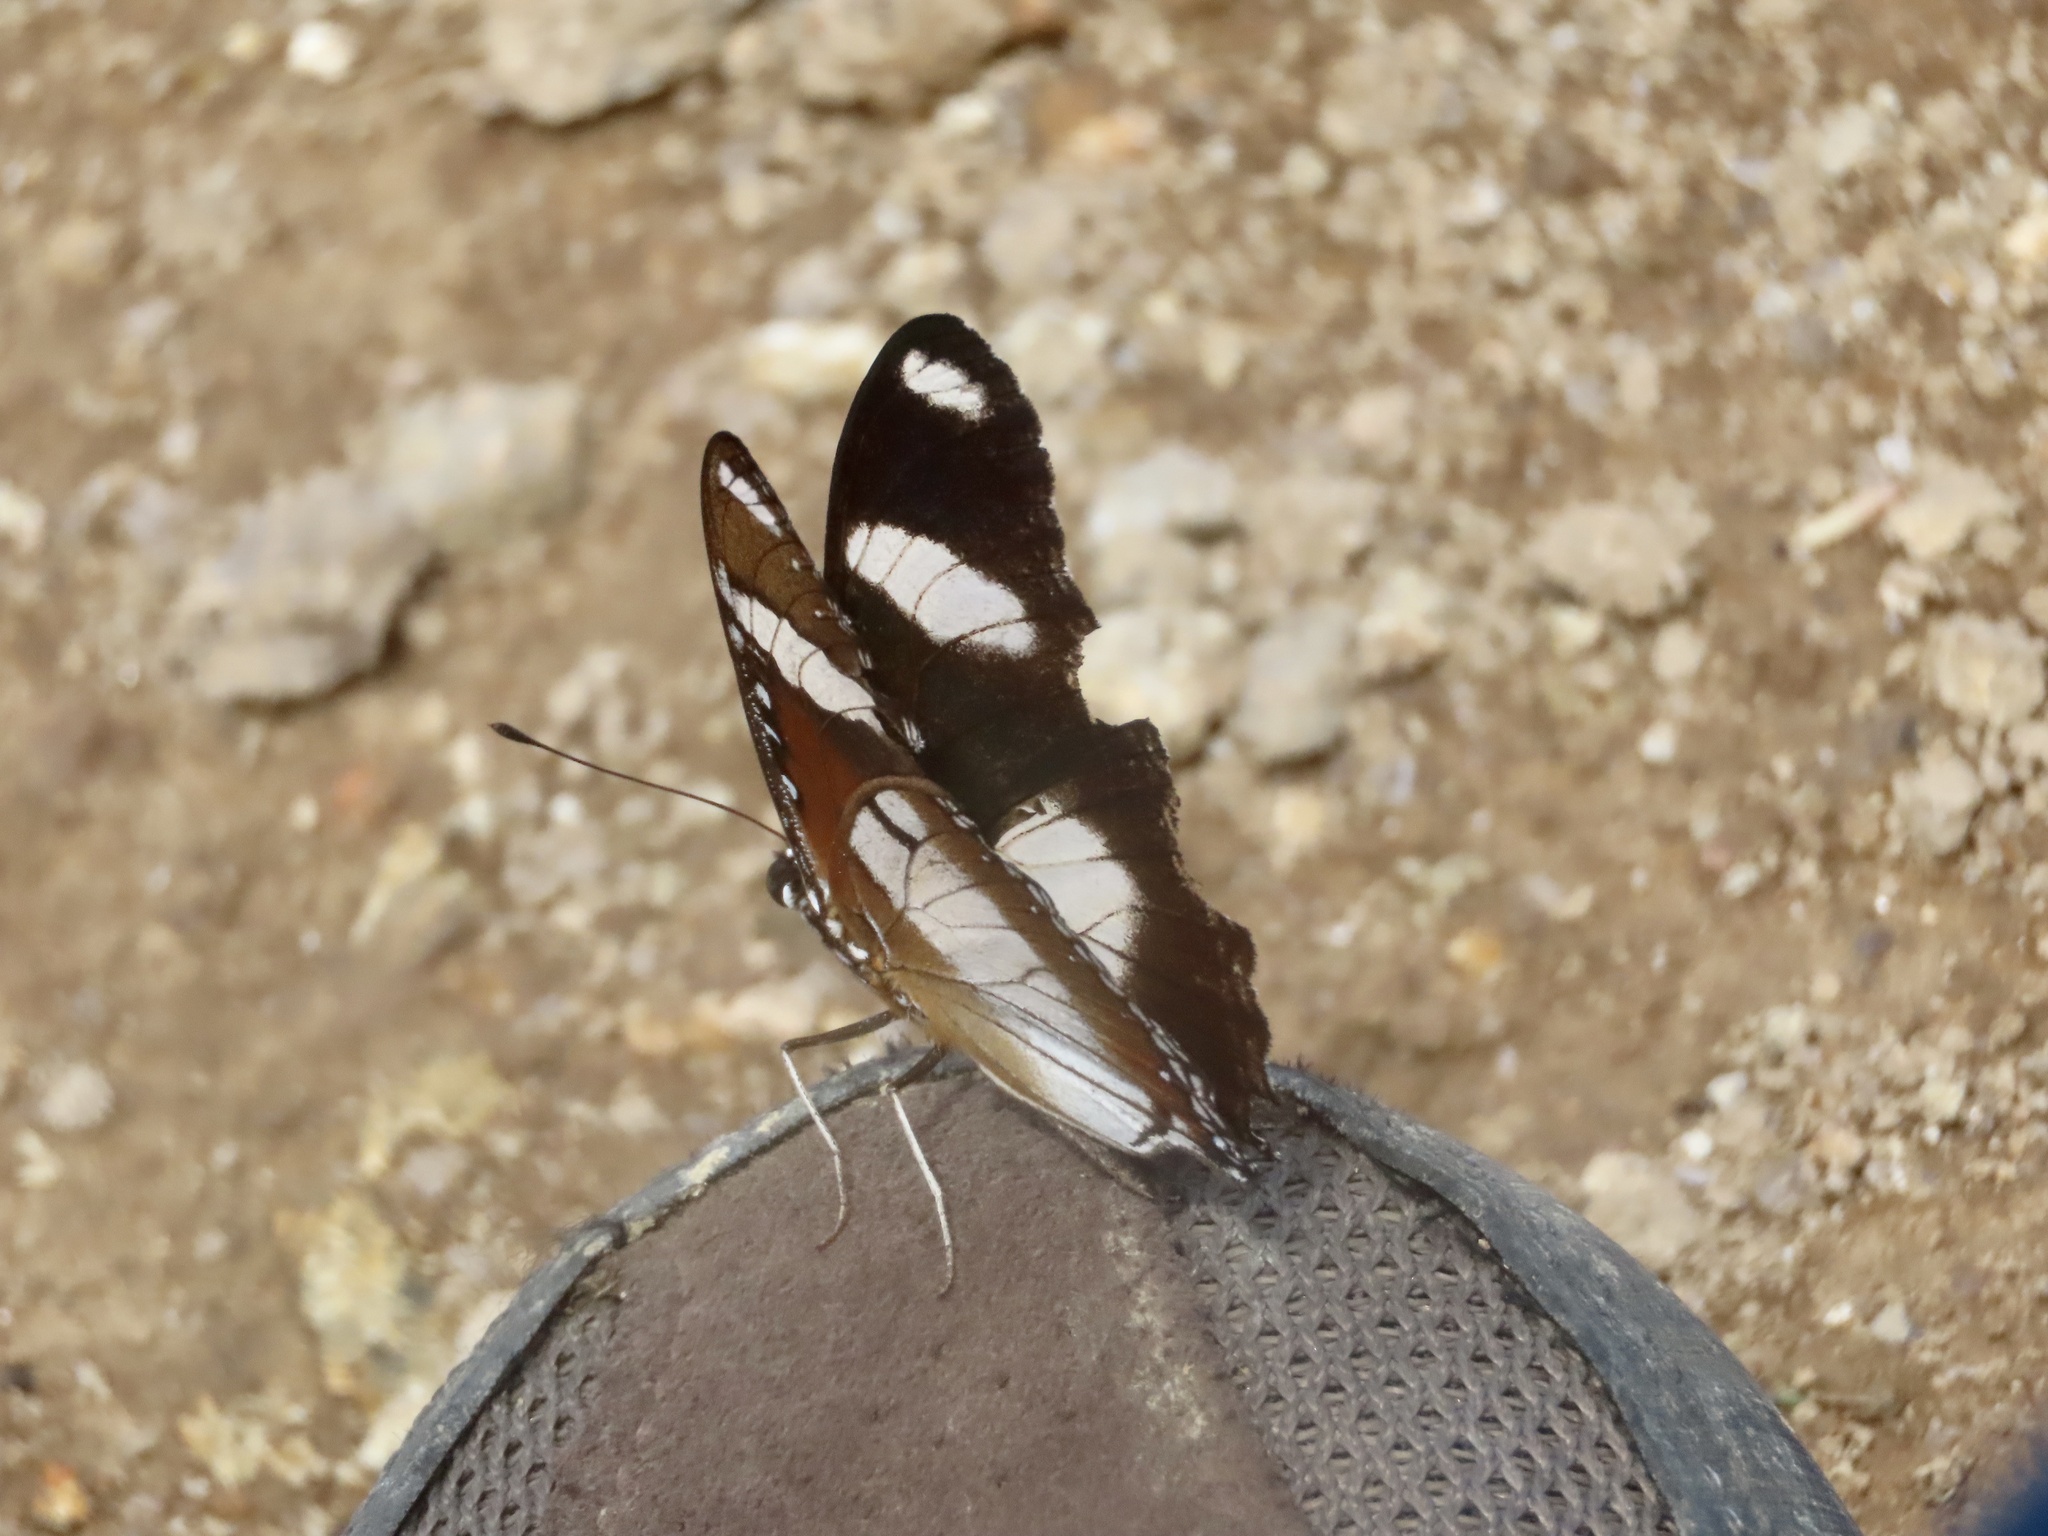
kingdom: Animalia
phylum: Arthropoda
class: Insecta
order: Lepidoptera
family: Nymphalidae
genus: Hypolimnas
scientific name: Hypolimnas misippus
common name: False plain tiger
